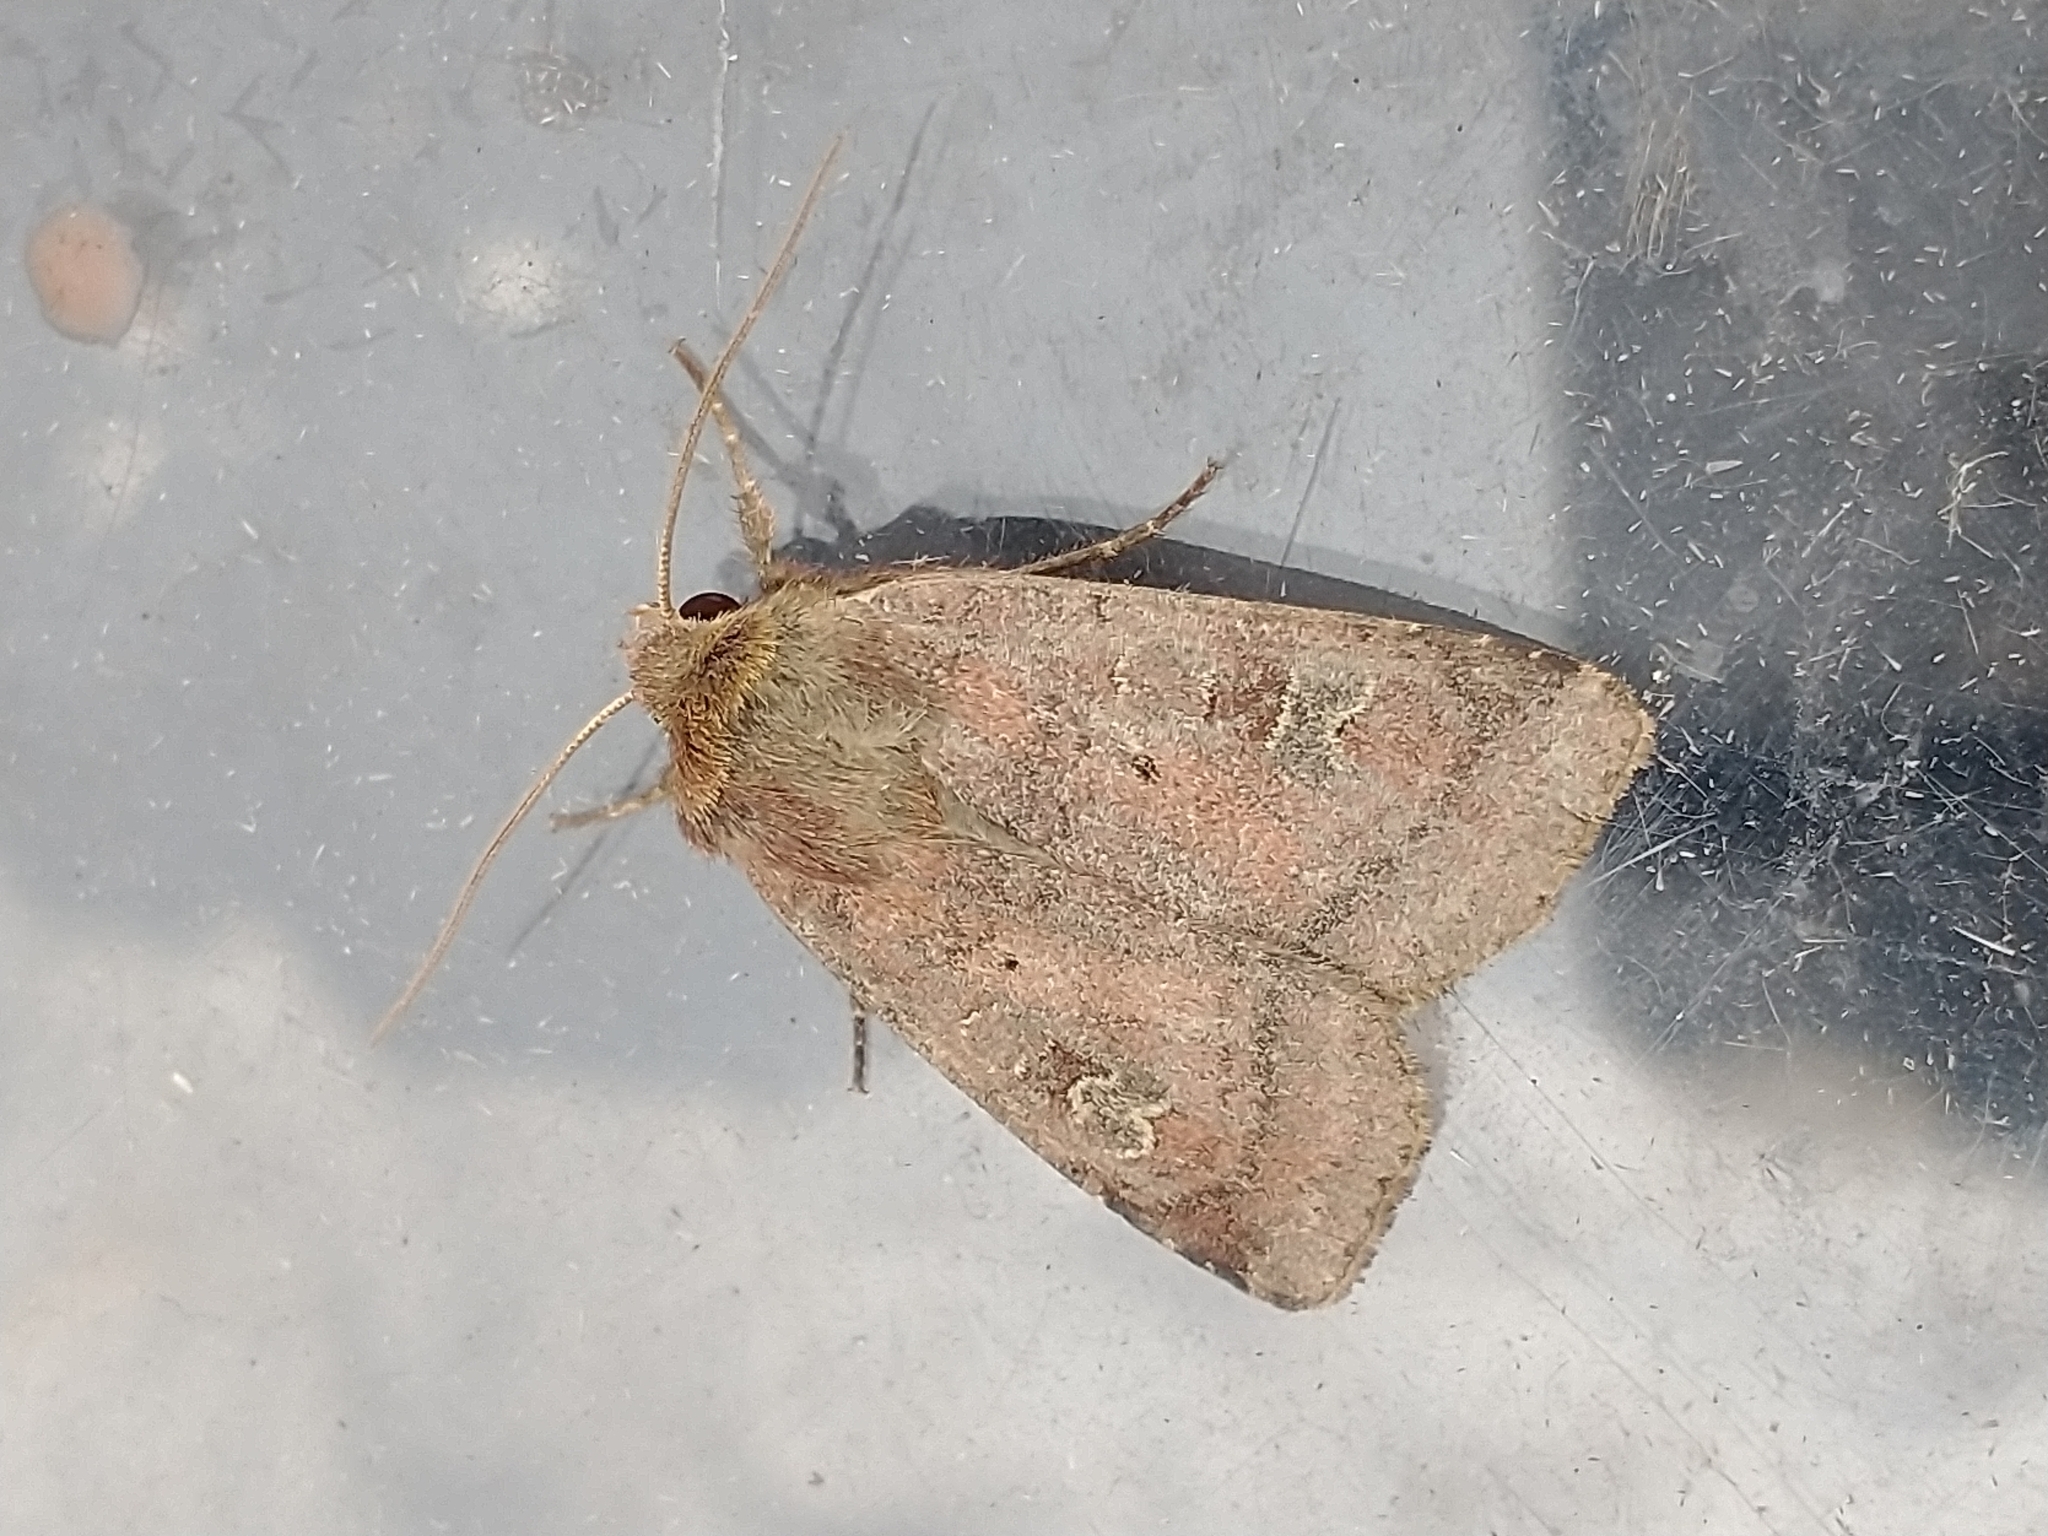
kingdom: Animalia
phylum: Arthropoda
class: Insecta
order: Lepidoptera
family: Noctuidae
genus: Diarsia
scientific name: Diarsia rubi
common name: Small square-spot
